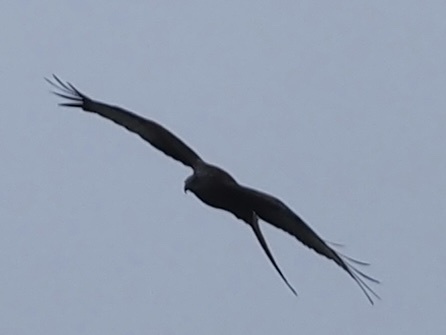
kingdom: Animalia
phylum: Chordata
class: Aves
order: Accipitriformes
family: Accipitridae
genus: Milvus
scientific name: Milvus milvus
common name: Red kite
